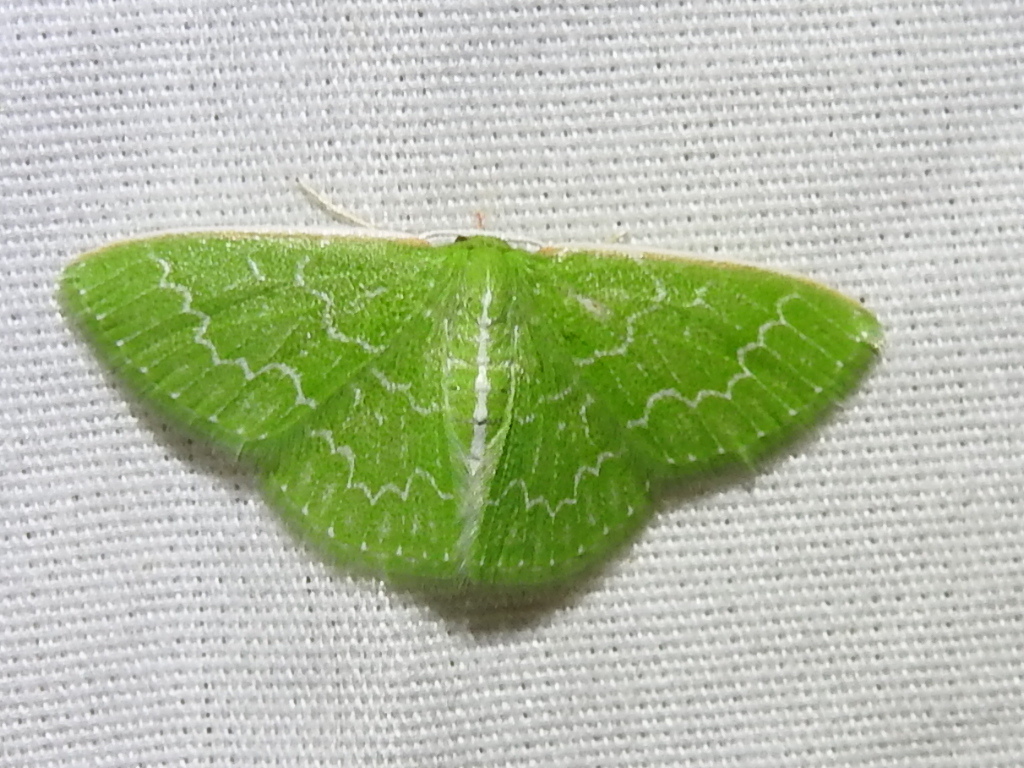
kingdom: Animalia
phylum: Arthropoda
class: Insecta
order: Lepidoptera
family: Geometridae
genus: Synchlora
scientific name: Synchlora frondaria
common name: Southern emerald
